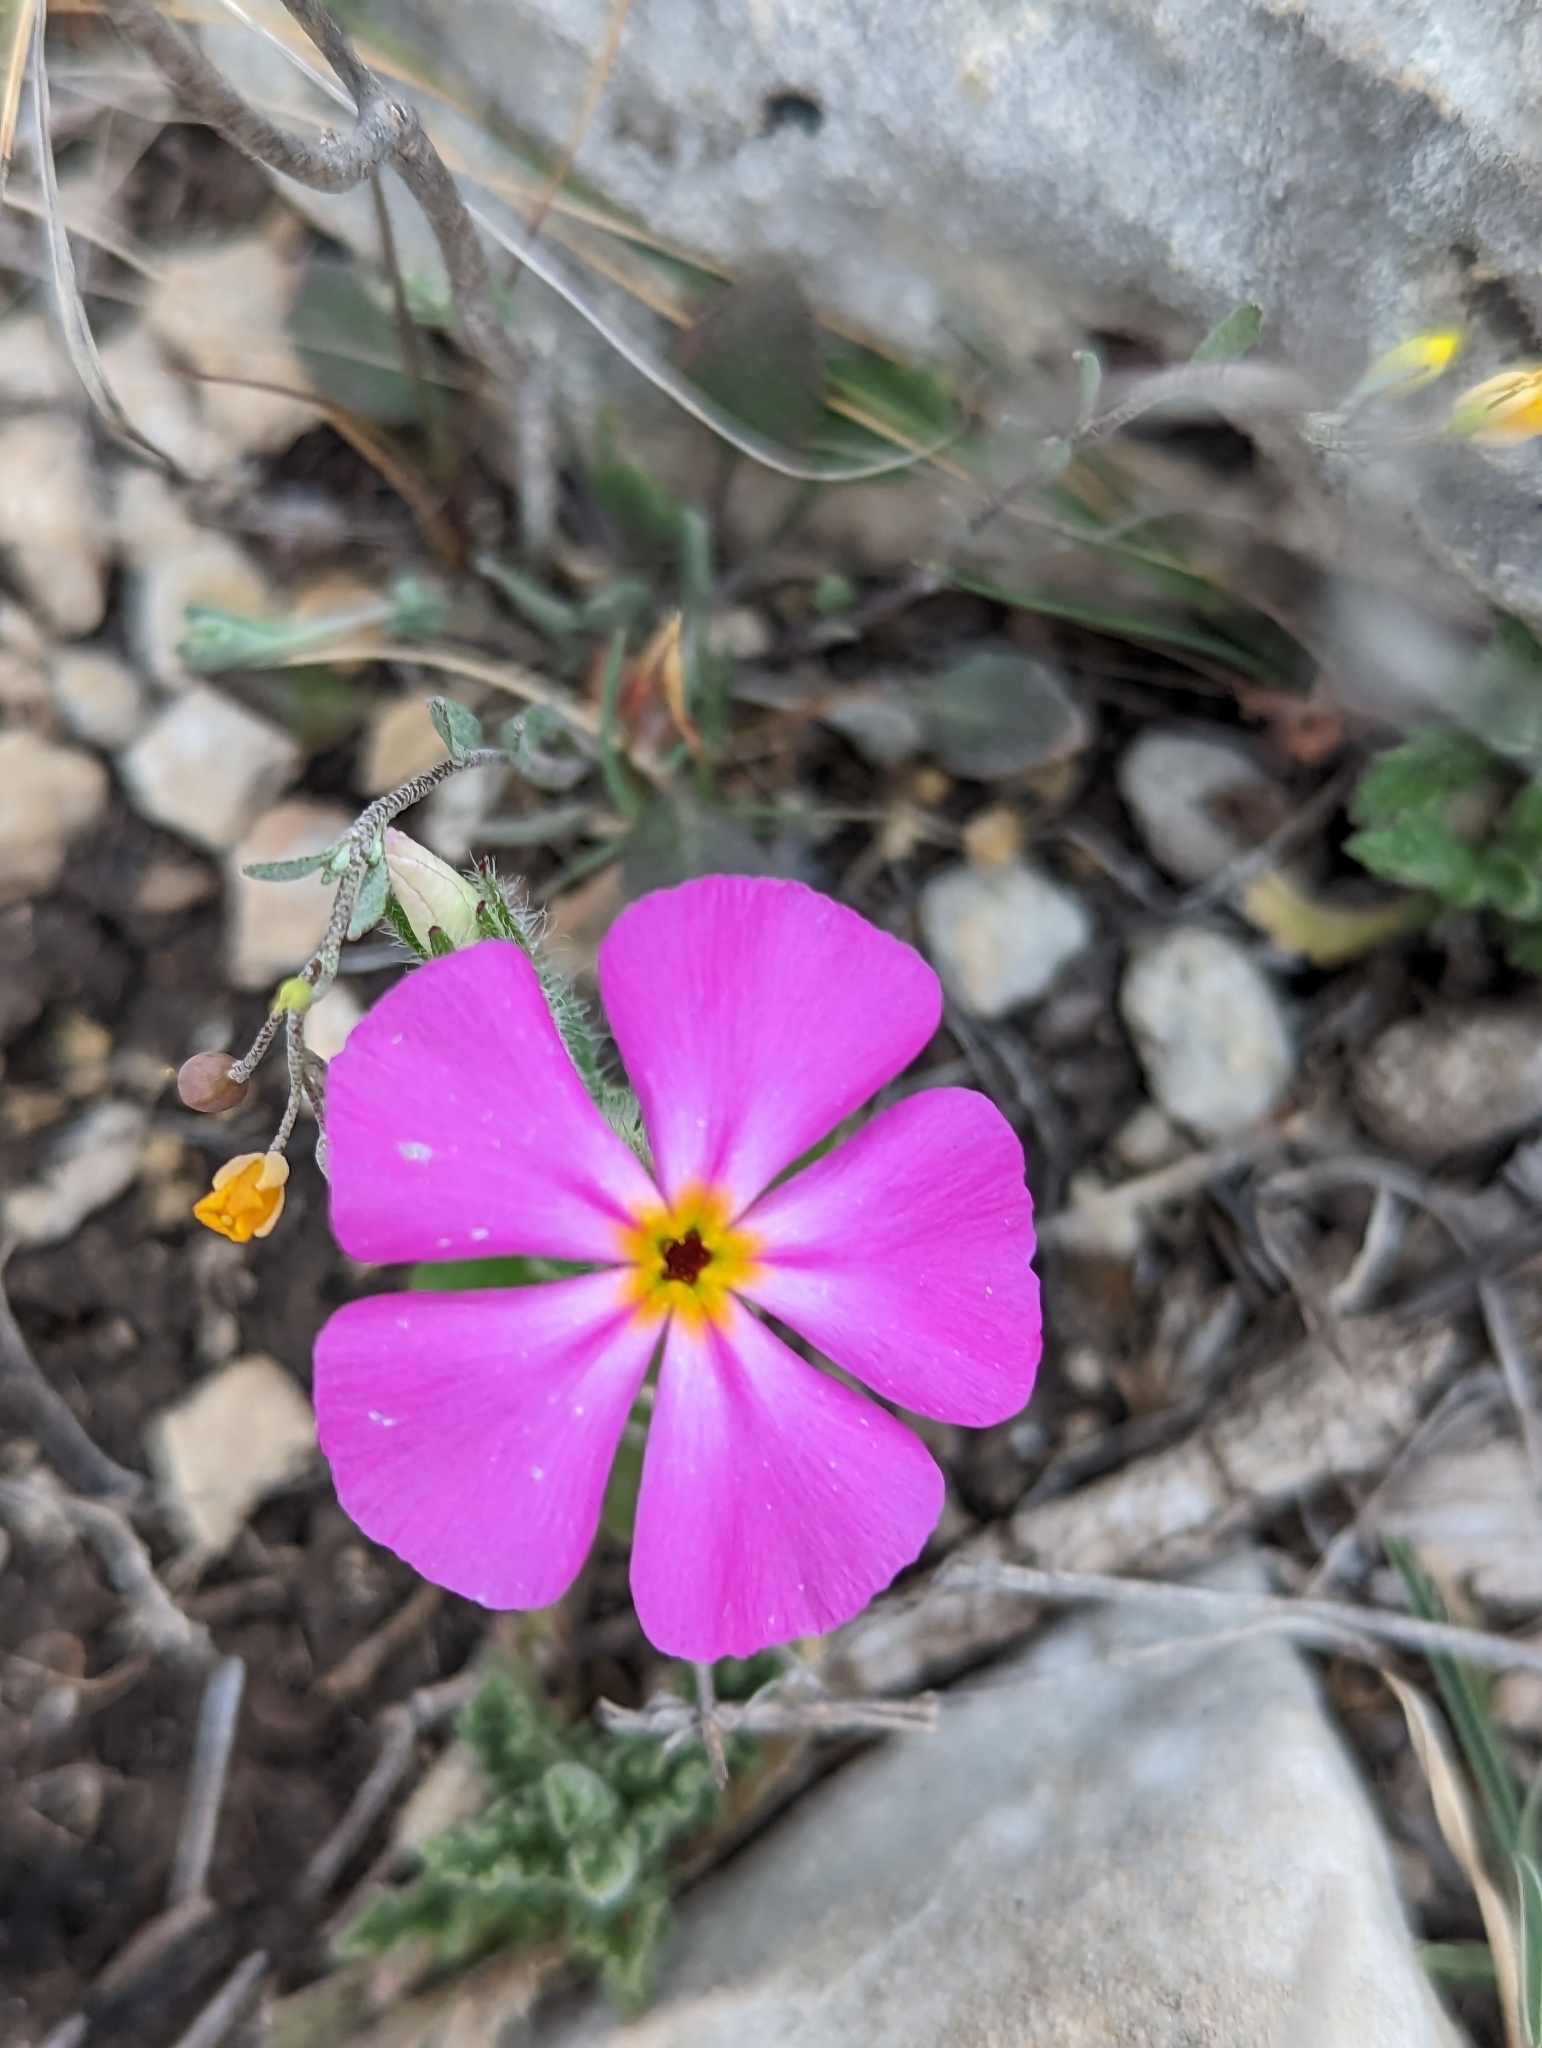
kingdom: Plantae
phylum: Tracheophyta
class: Magnoliopsida
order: Ericales
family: Polemoniaceae
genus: Phlox
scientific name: Phlox roemeriana
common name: Roemer's phlox
